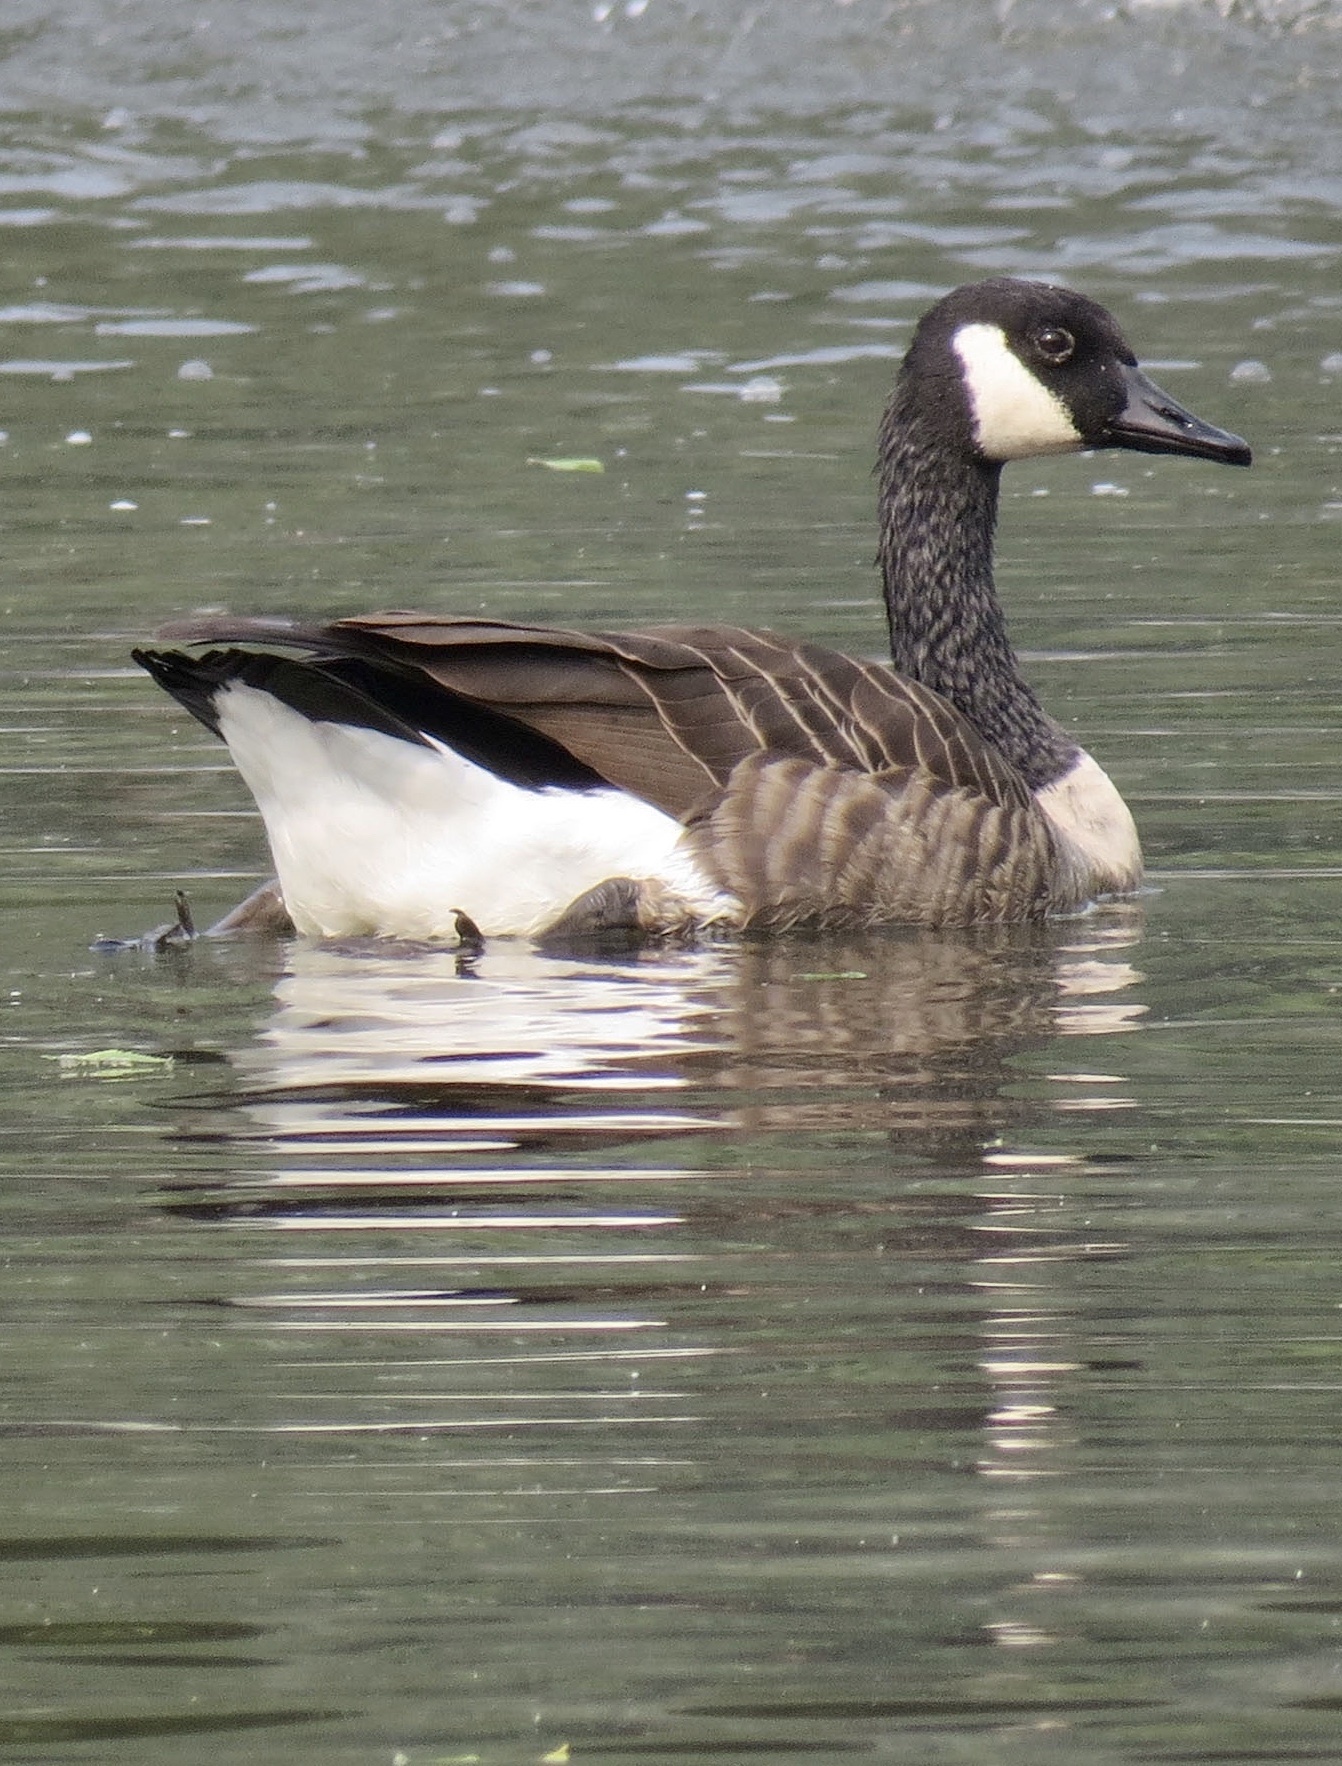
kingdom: Animalia
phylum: Chordata
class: Aves
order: Anseriformes
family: Anatidae
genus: Branta
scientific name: Branta canadensis
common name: Canada goose
